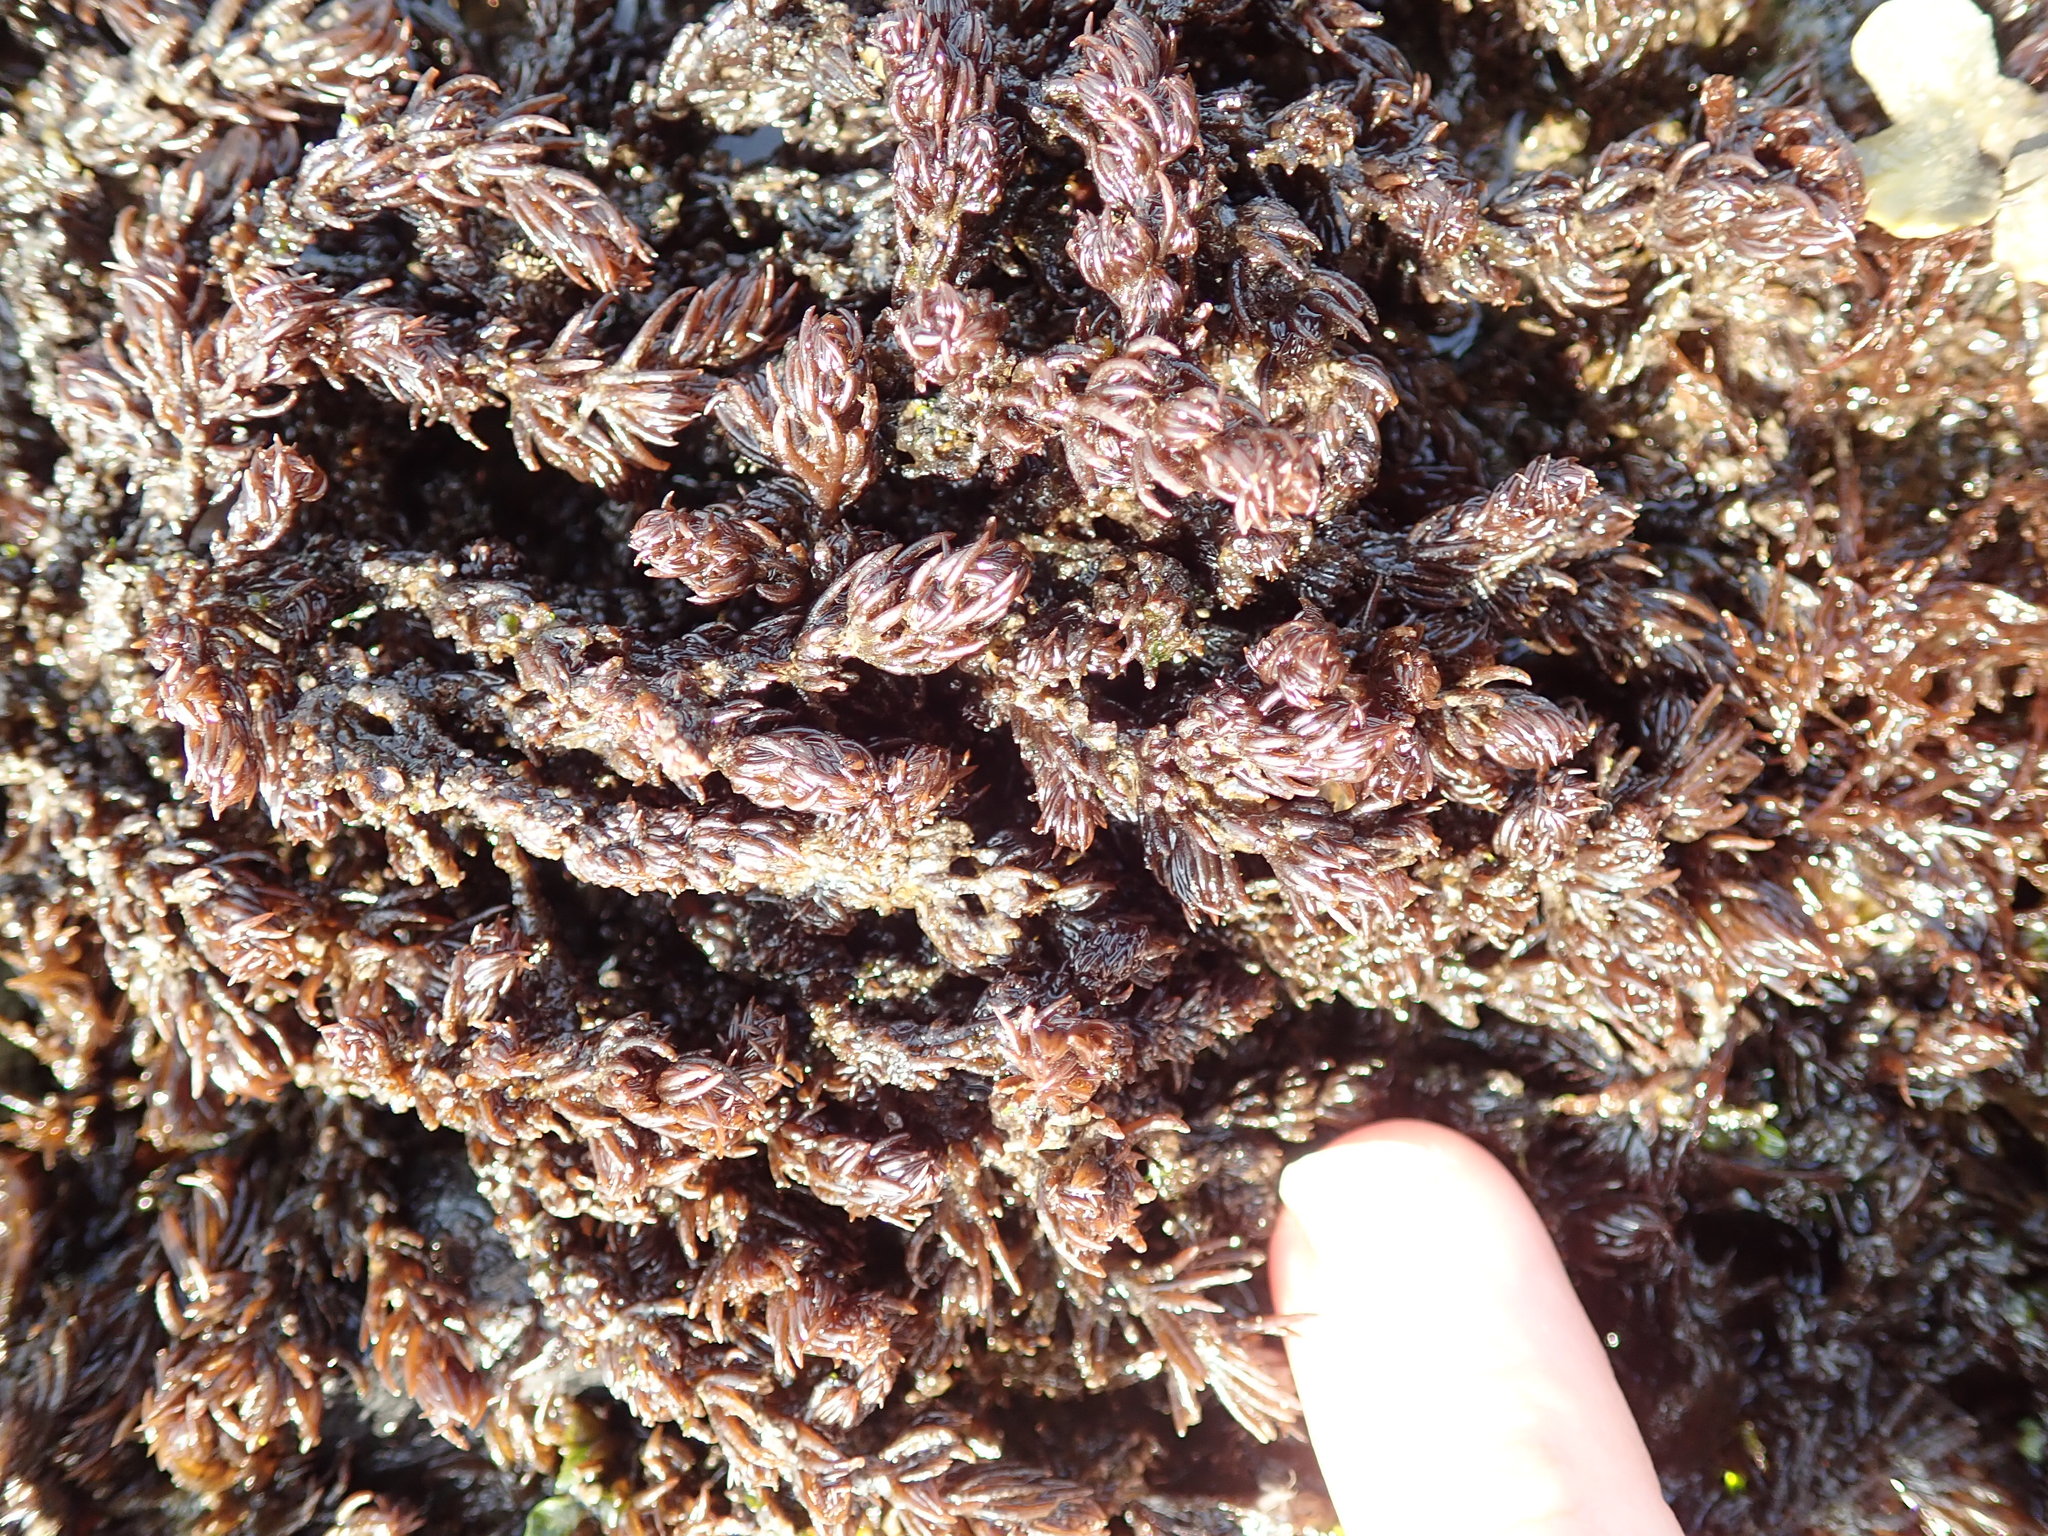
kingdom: Plantae
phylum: Rhodophyta
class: Florideophyceae
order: Ceramiales
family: Rhodomelaceae
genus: Neorhodomela
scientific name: Neorhodomela larix
